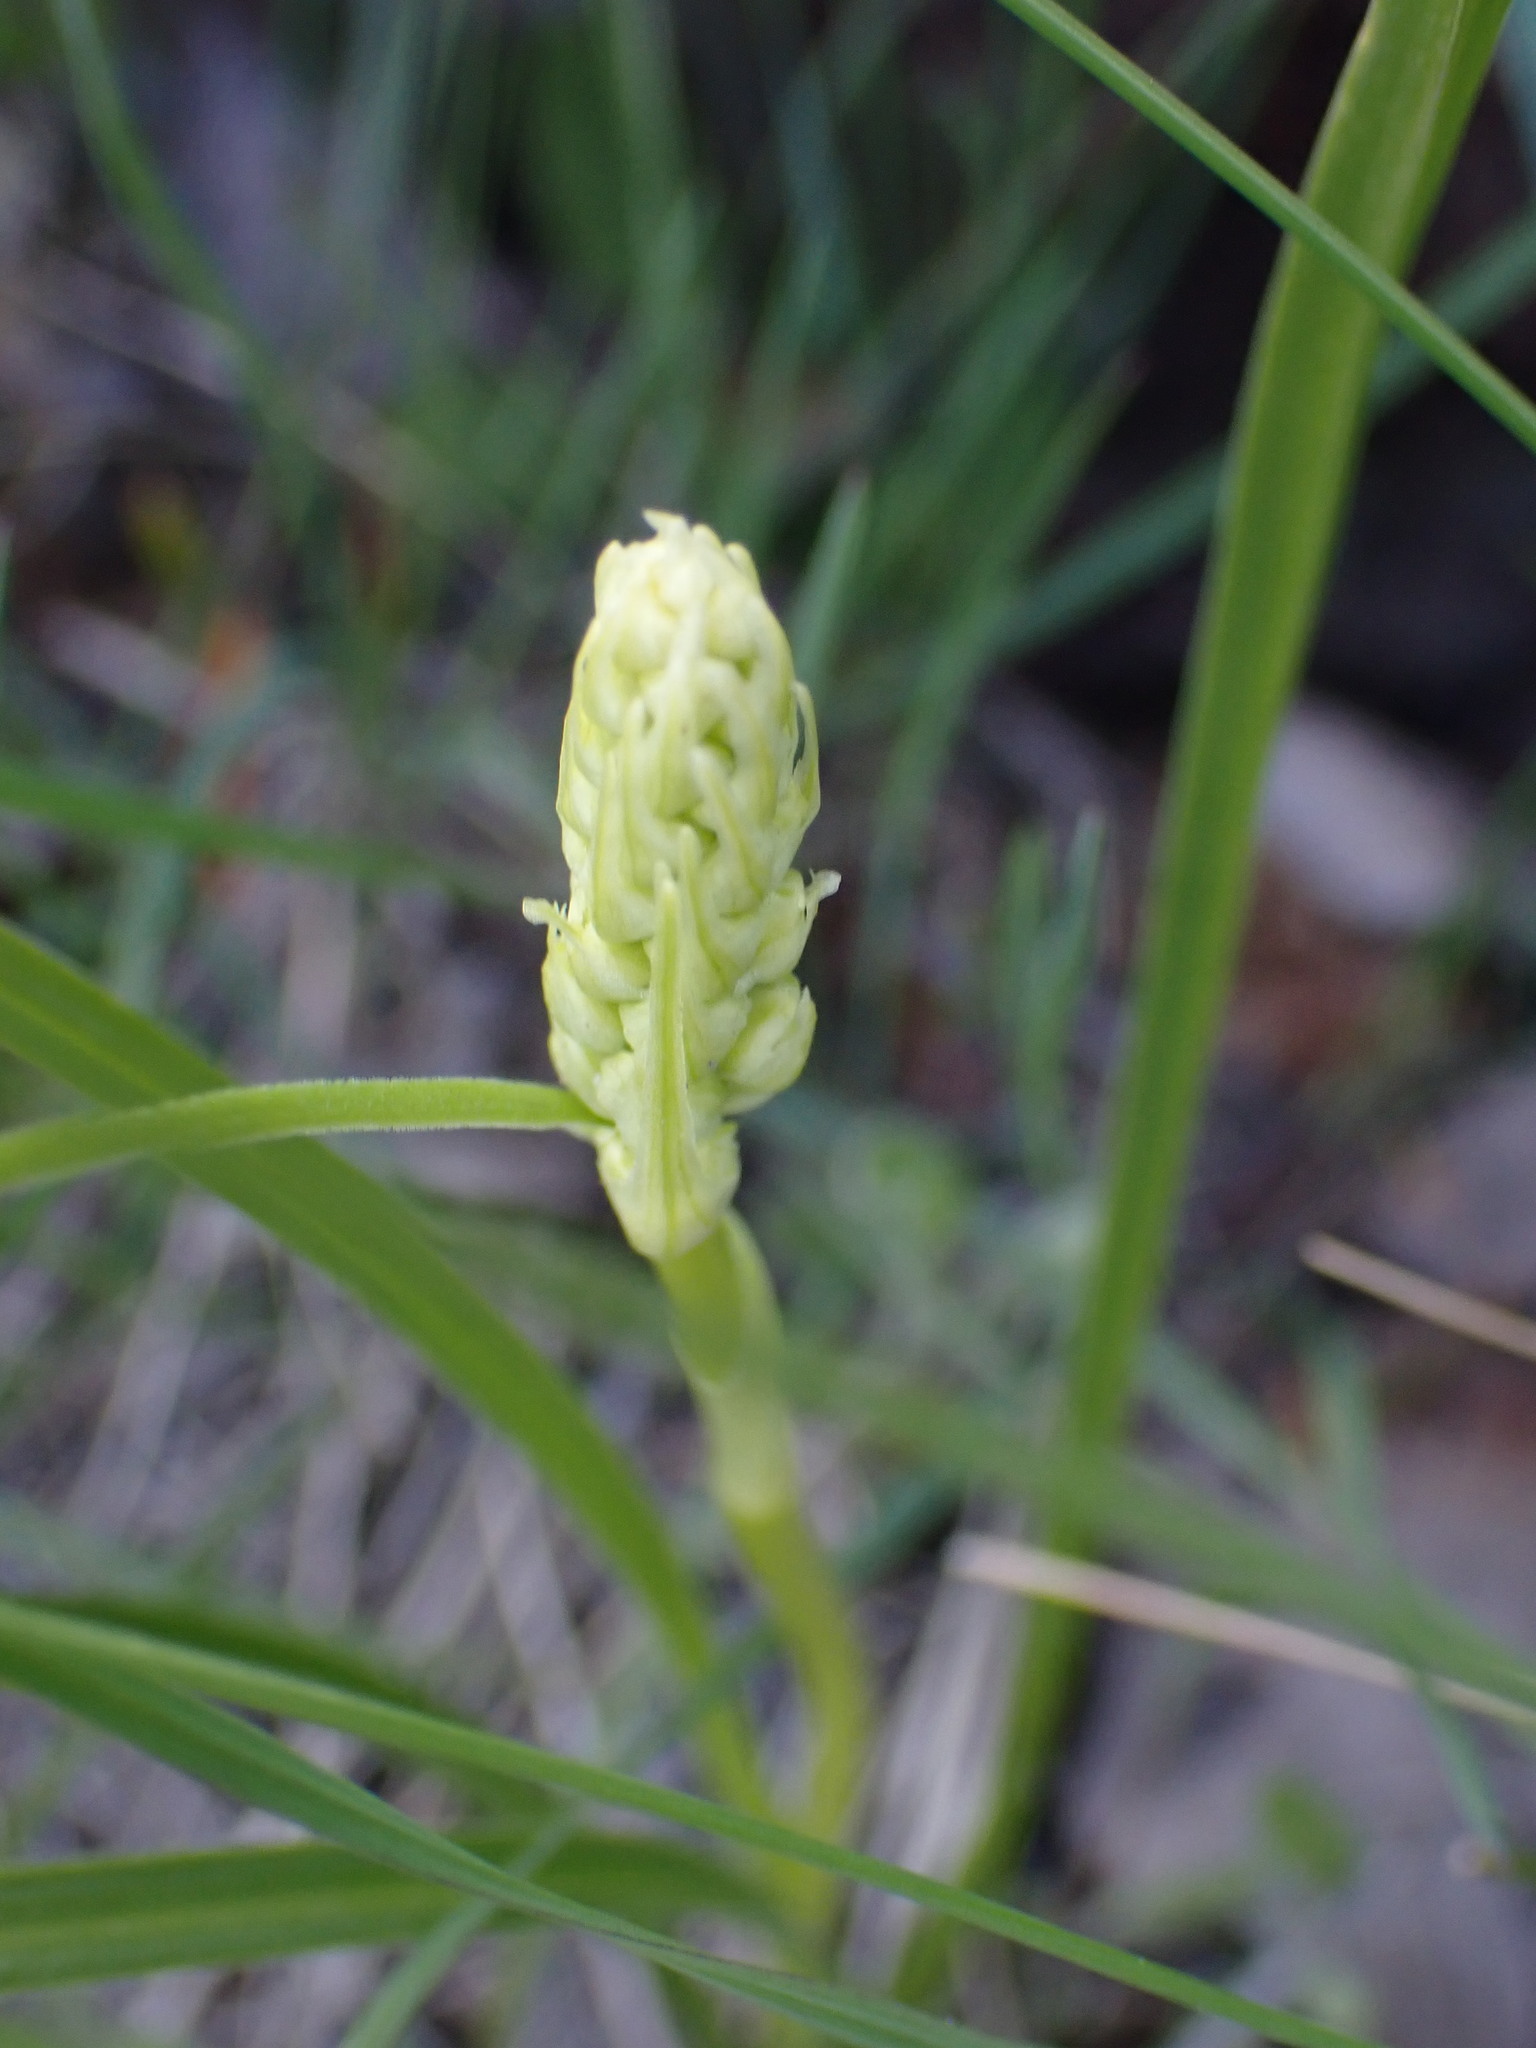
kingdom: Plantae
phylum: Tracheophyta
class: Liliopsida
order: Liliales
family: Melanthiaceae
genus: Toxicoscordion
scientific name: Toxicoscordion venenosum
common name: Meadow death camas
